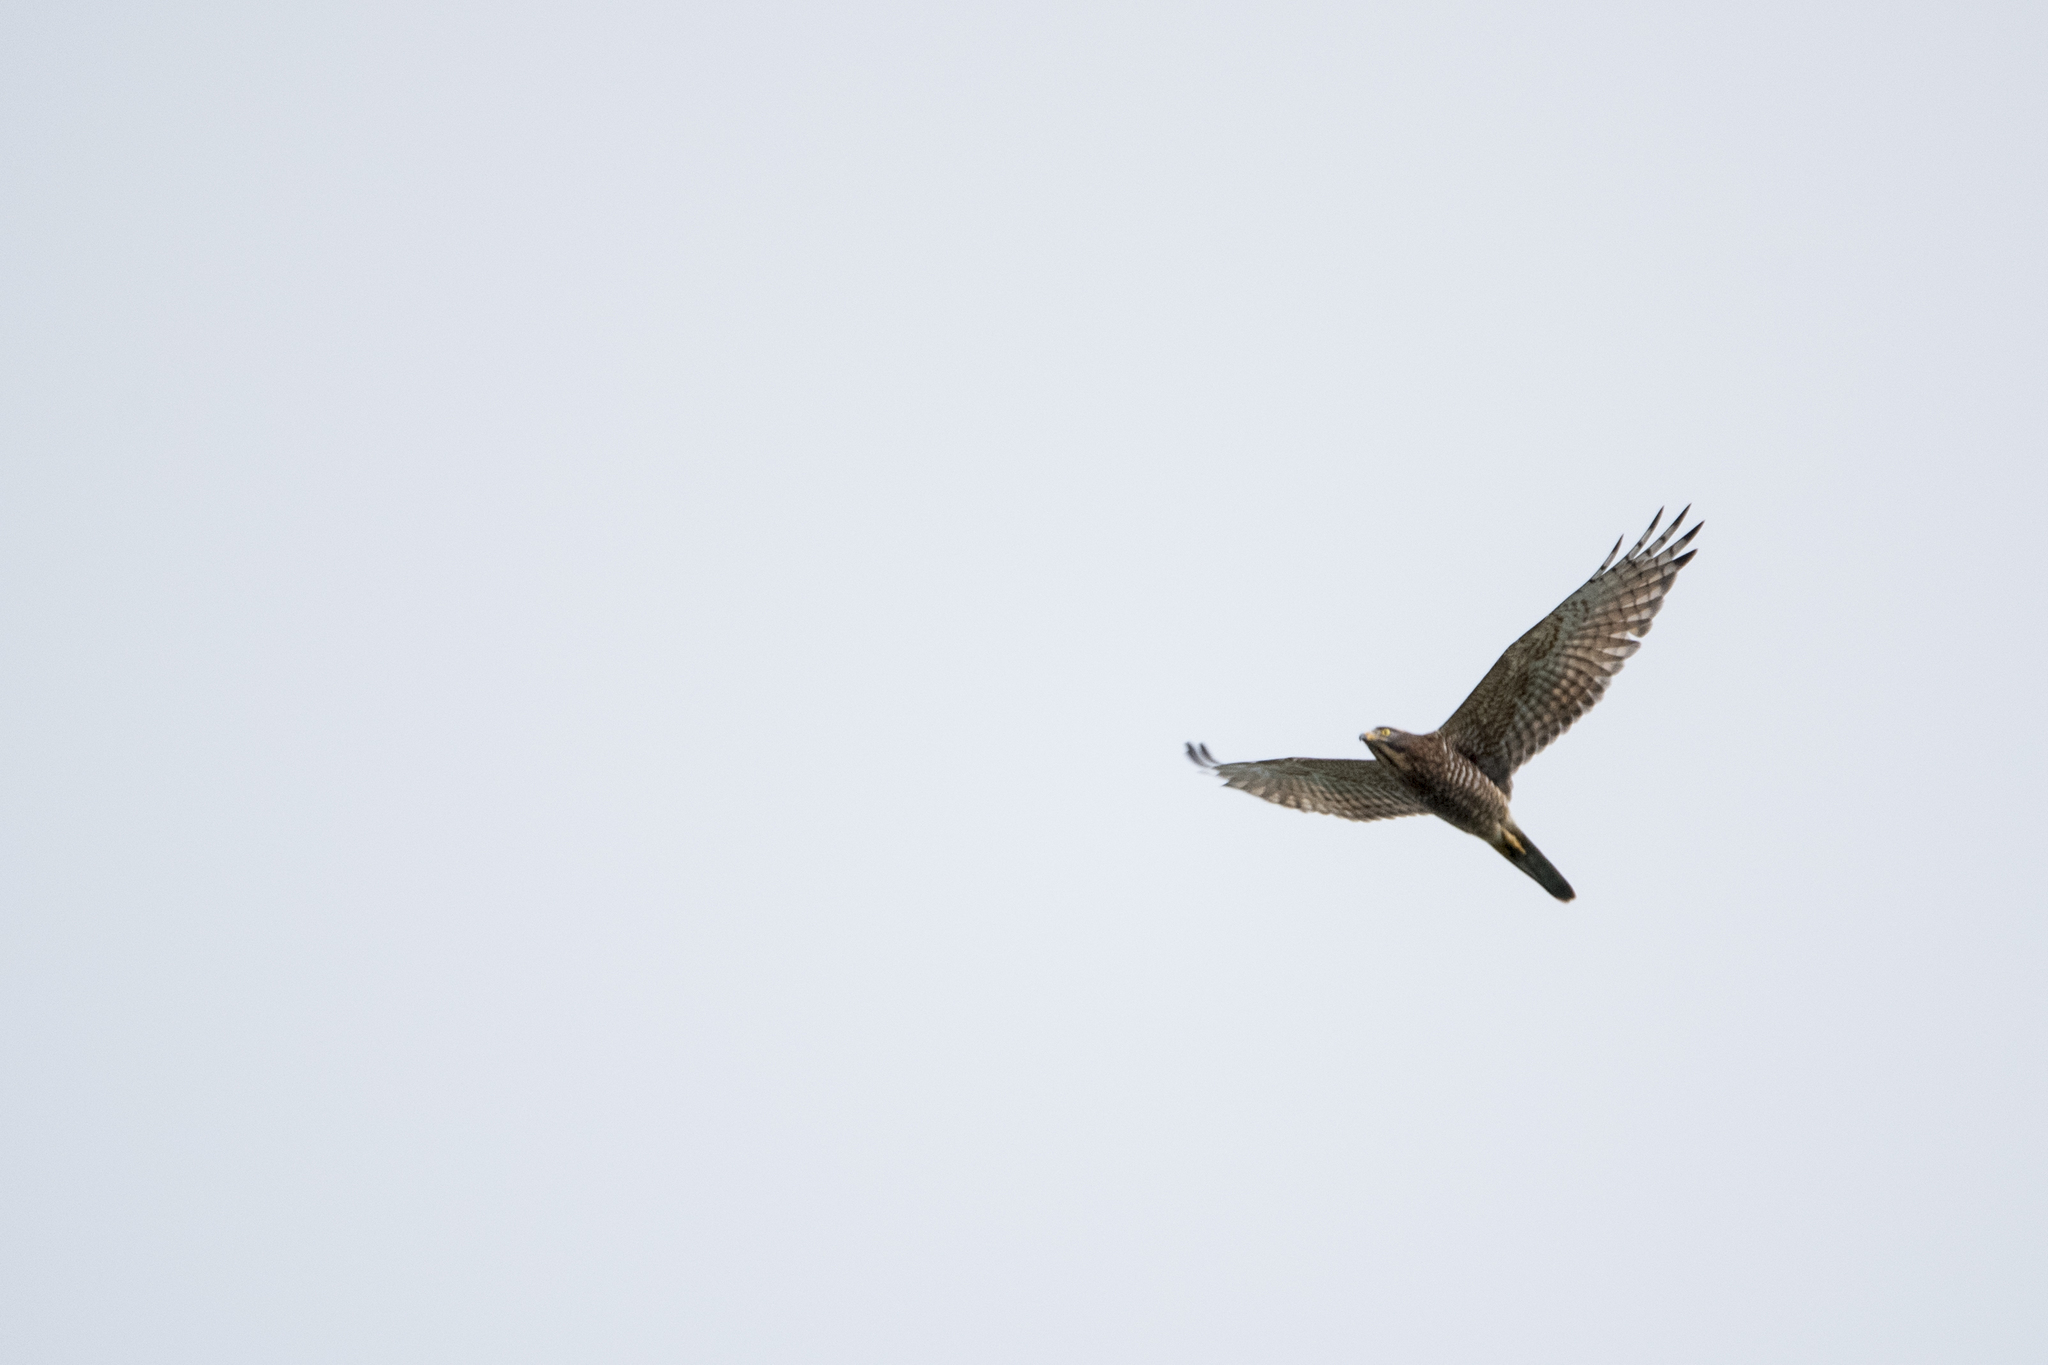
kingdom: Animalia
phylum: Chordata
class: Aves
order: Accipitriformes
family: Accipitridae
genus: Butastur
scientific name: Butastur indicus
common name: Grey-faced buzzard
